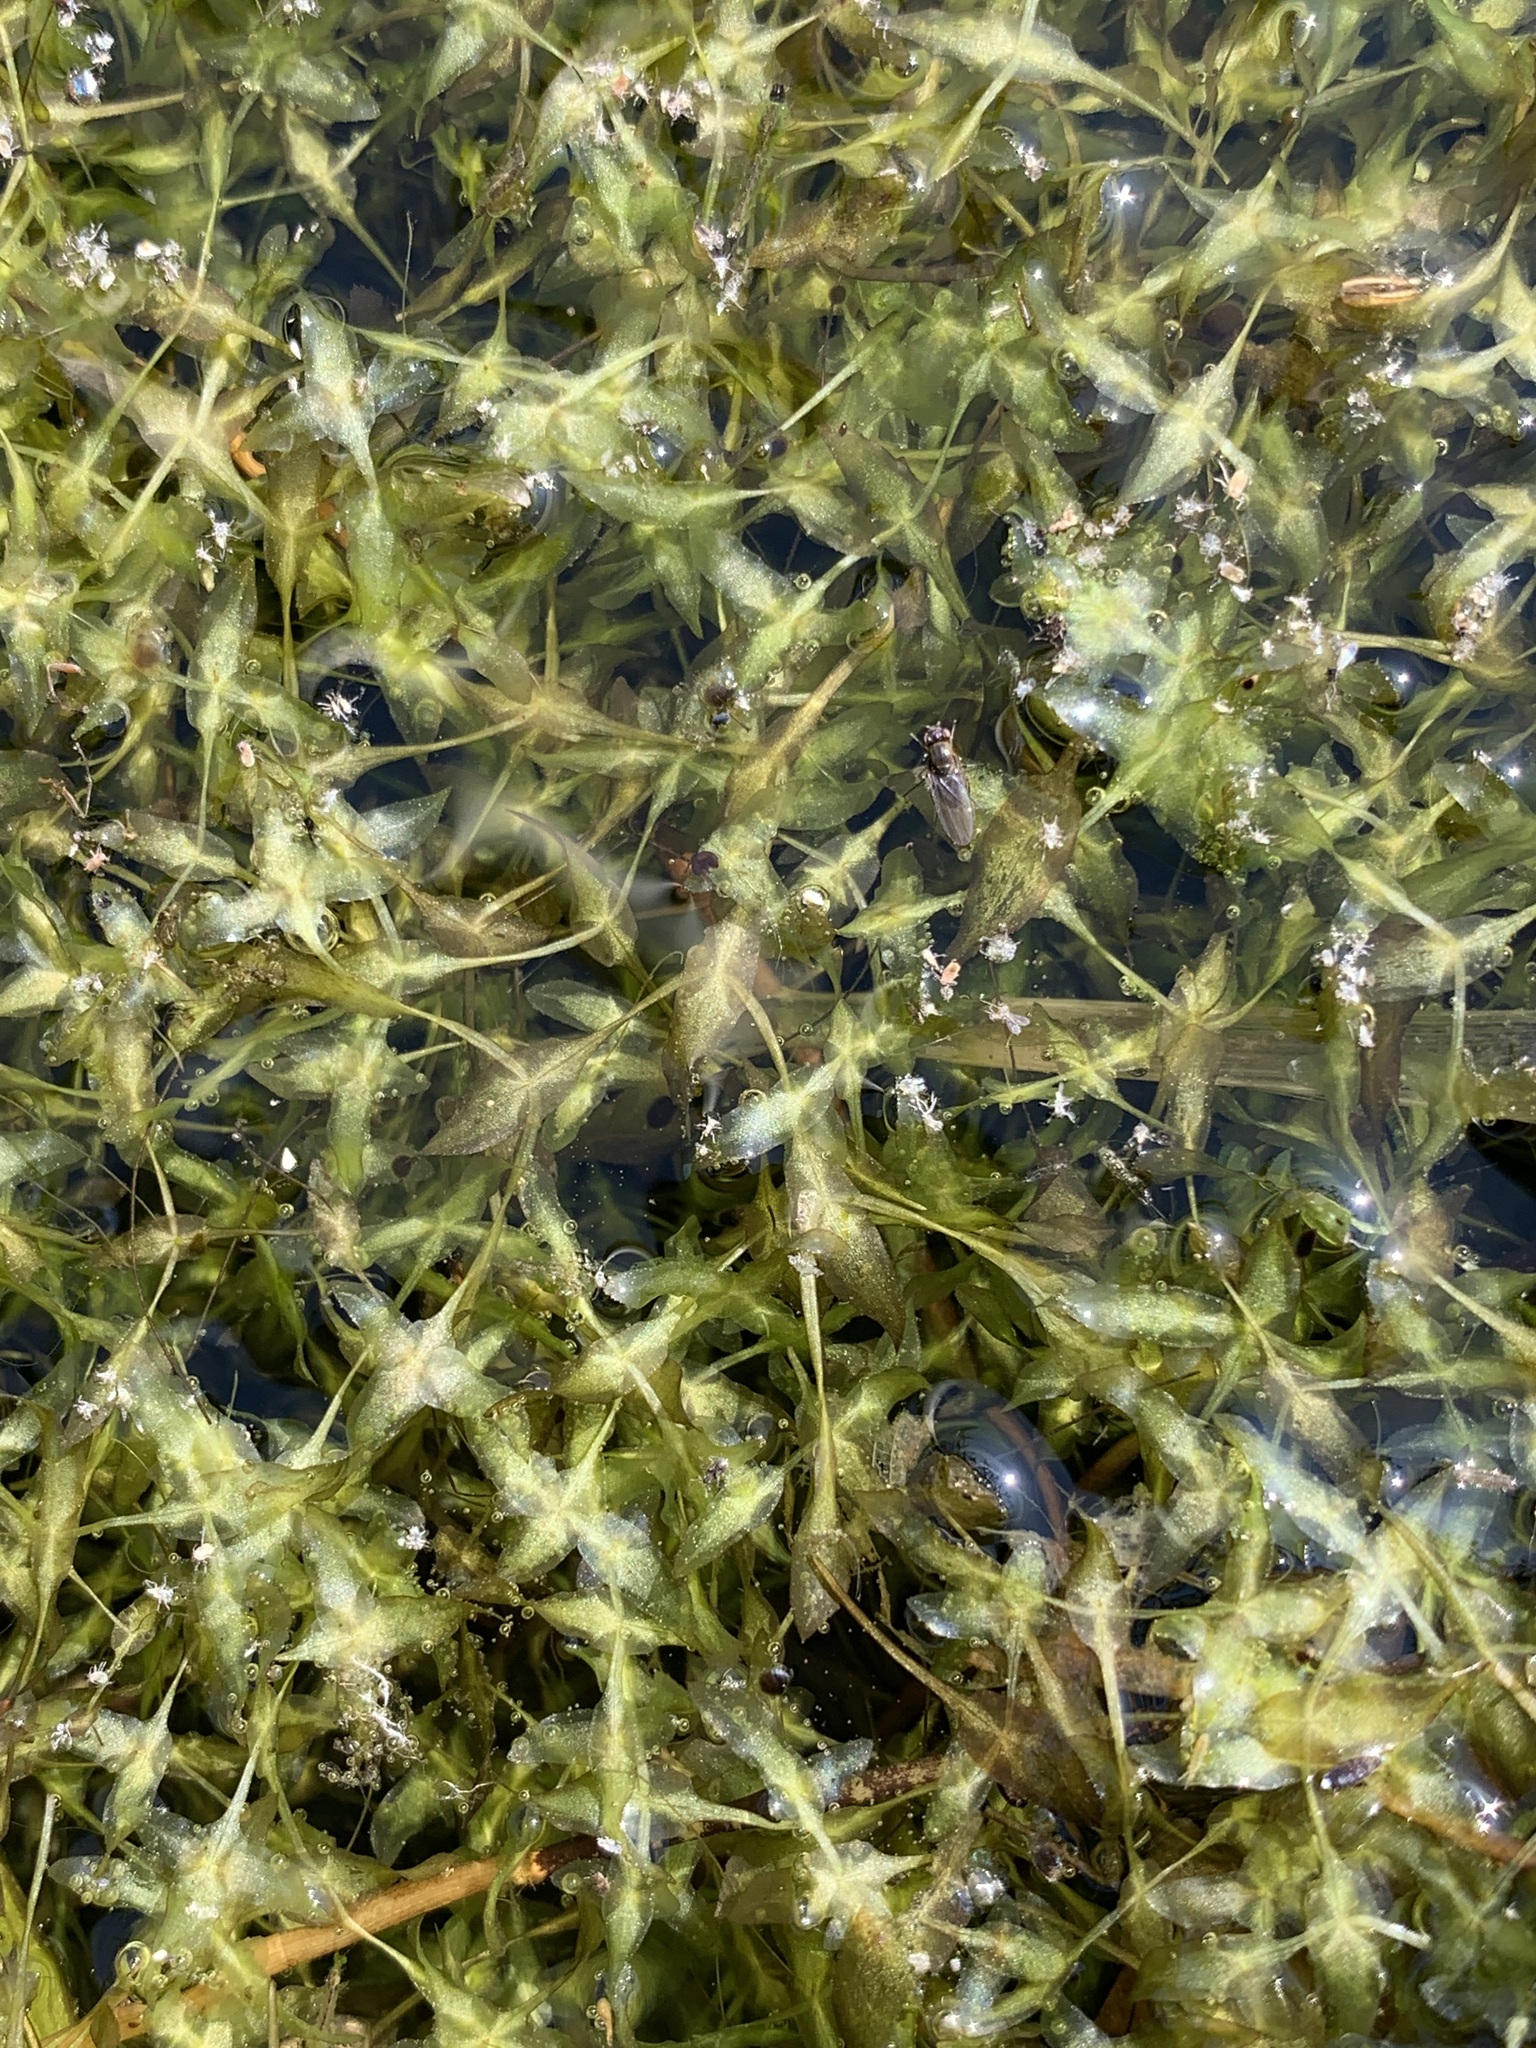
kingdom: Plantae
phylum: Tracheophyta
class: Liliopsida
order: Alismatales
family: Araceae
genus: Lemna
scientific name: Lemna trisulca
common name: Ivy-leaved duckweed
